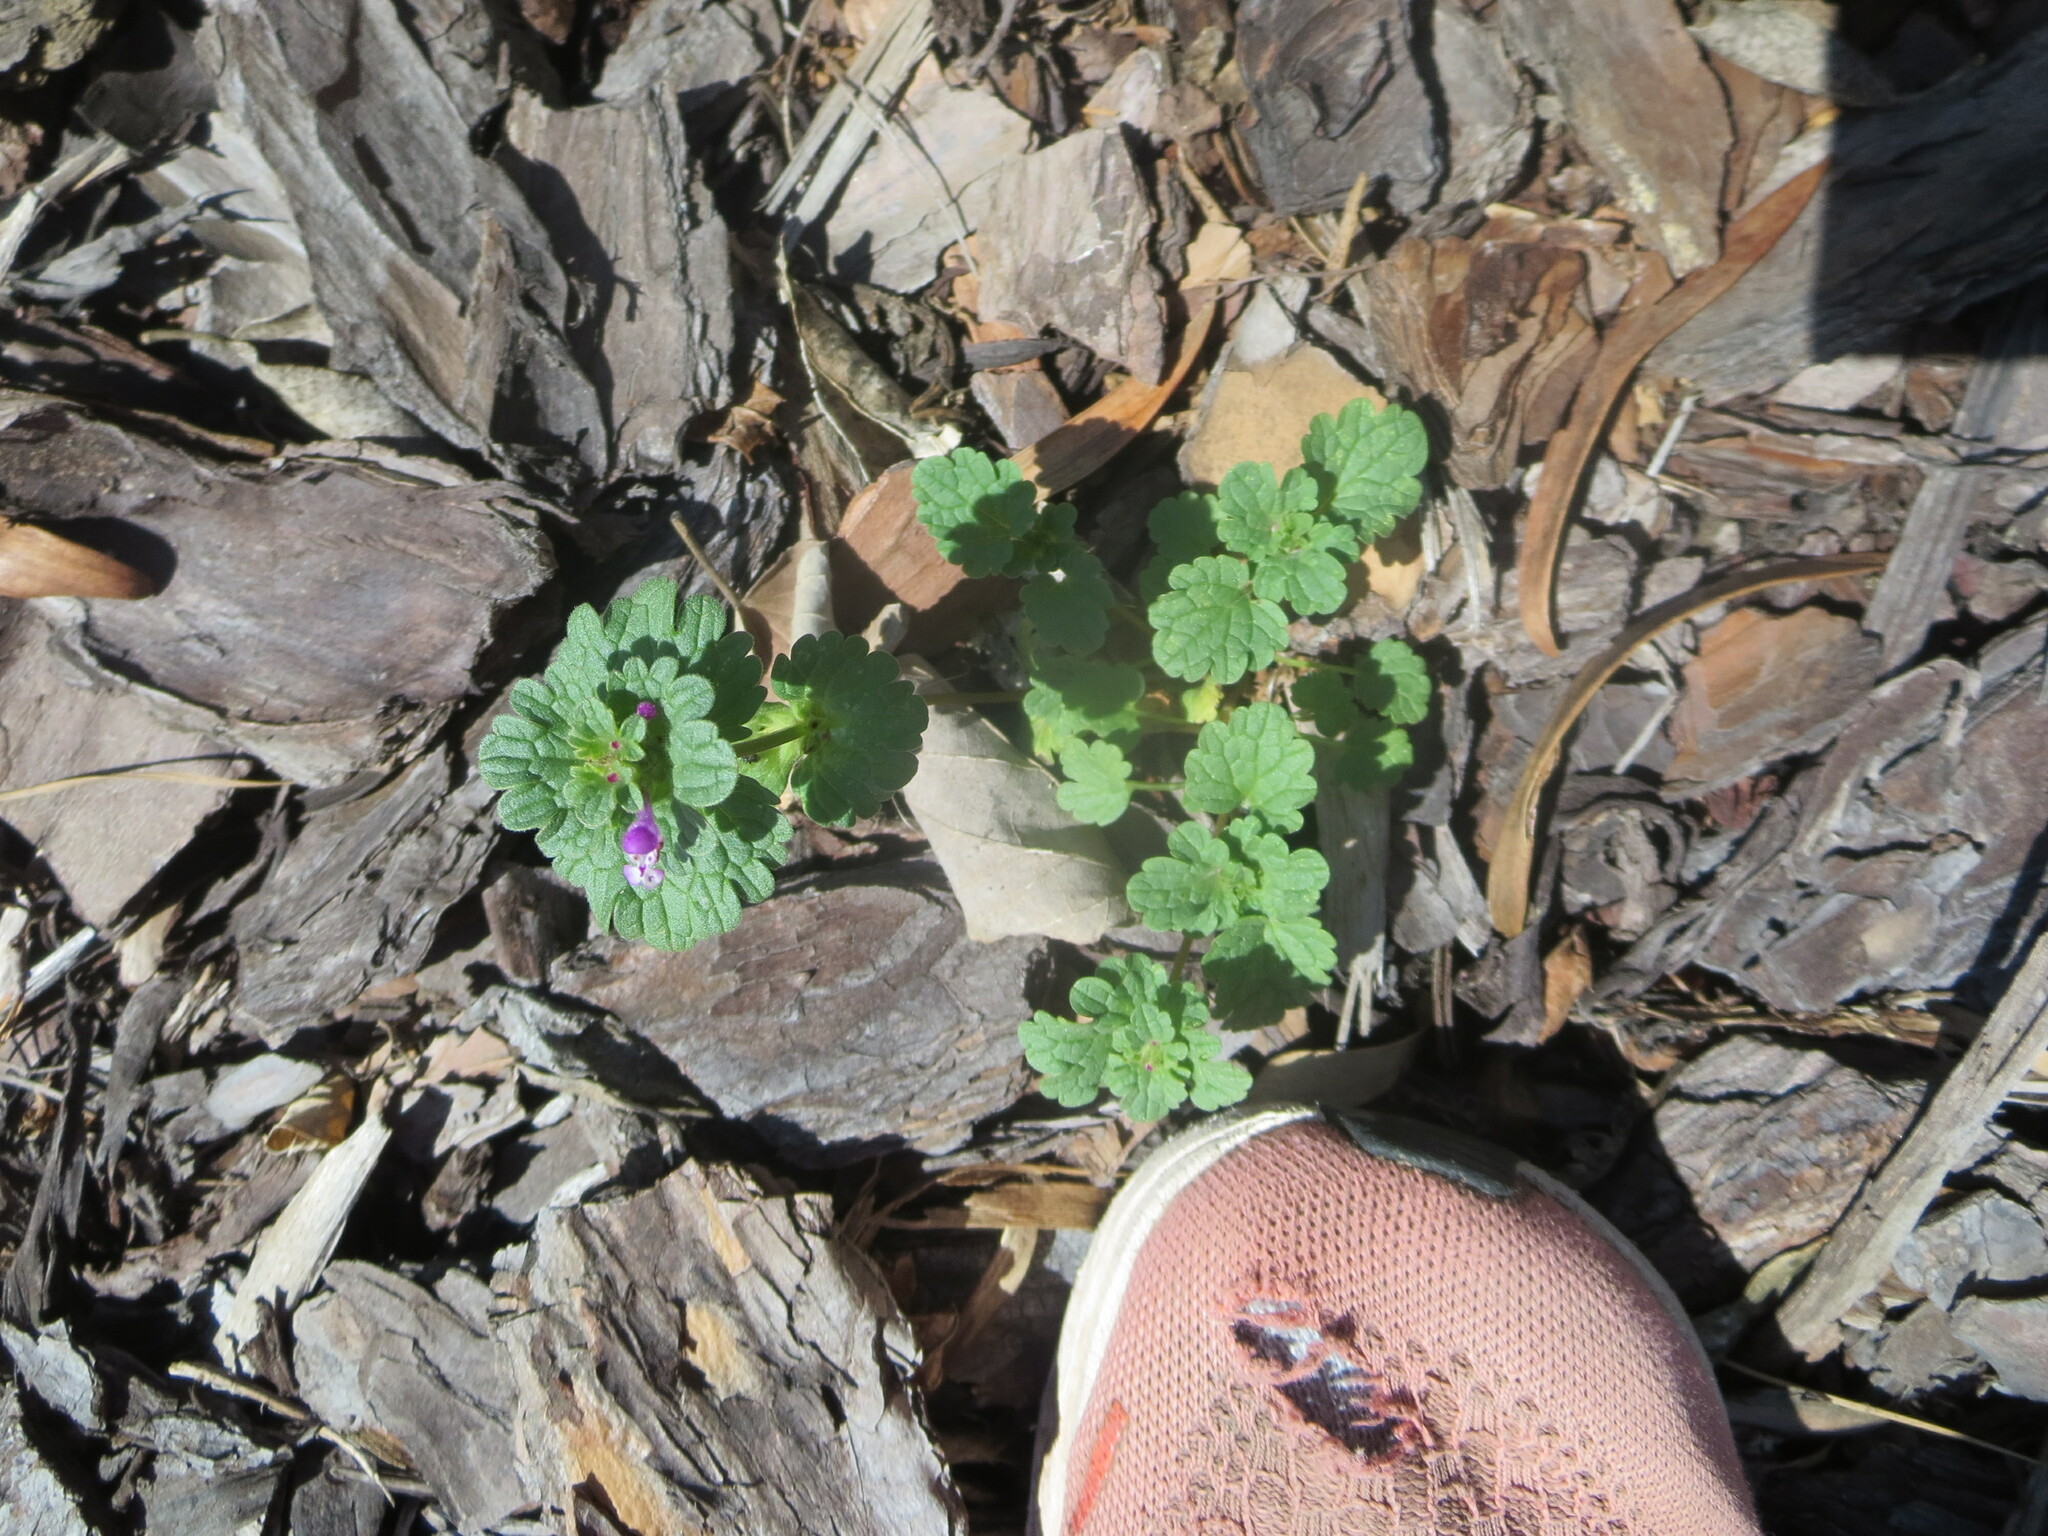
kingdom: Plantae
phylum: Tracheophyta
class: Magnoliopsida
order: Lamiales
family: Lamiaceae
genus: Lamium
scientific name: Lamium amplexicaule
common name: Henbit dead-nettle
